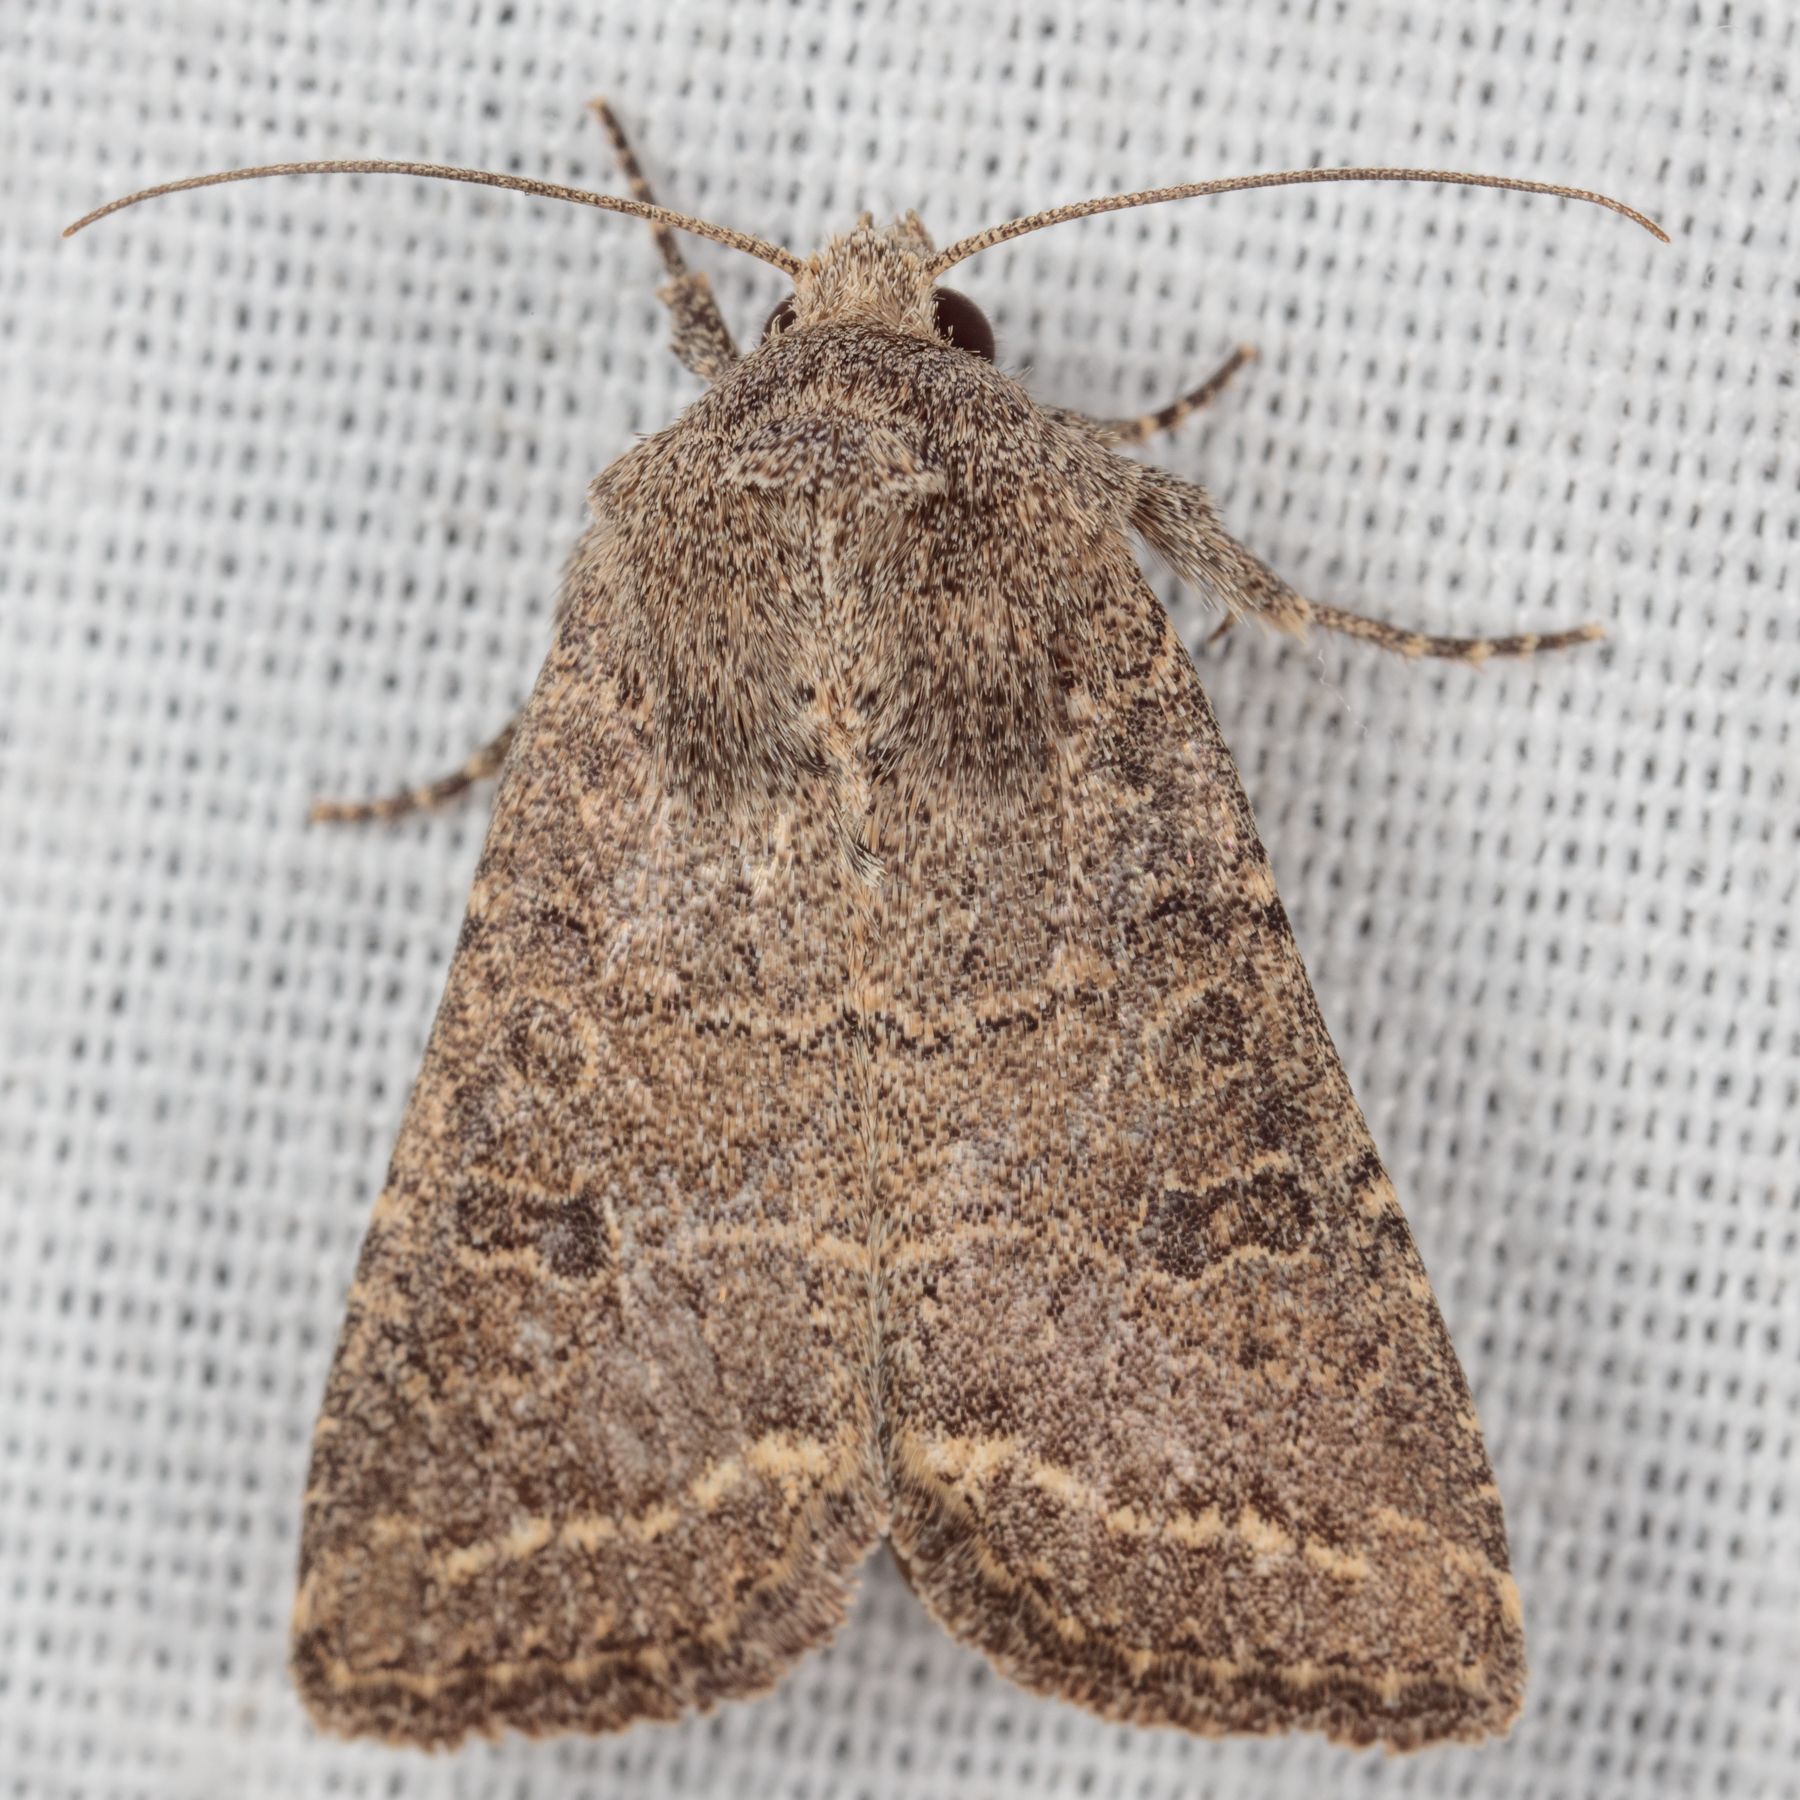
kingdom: Animalia
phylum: Arthropoda
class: Insecta
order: Lepidoptera
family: Noctuidae
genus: Trichopolia
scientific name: Trichopolia
